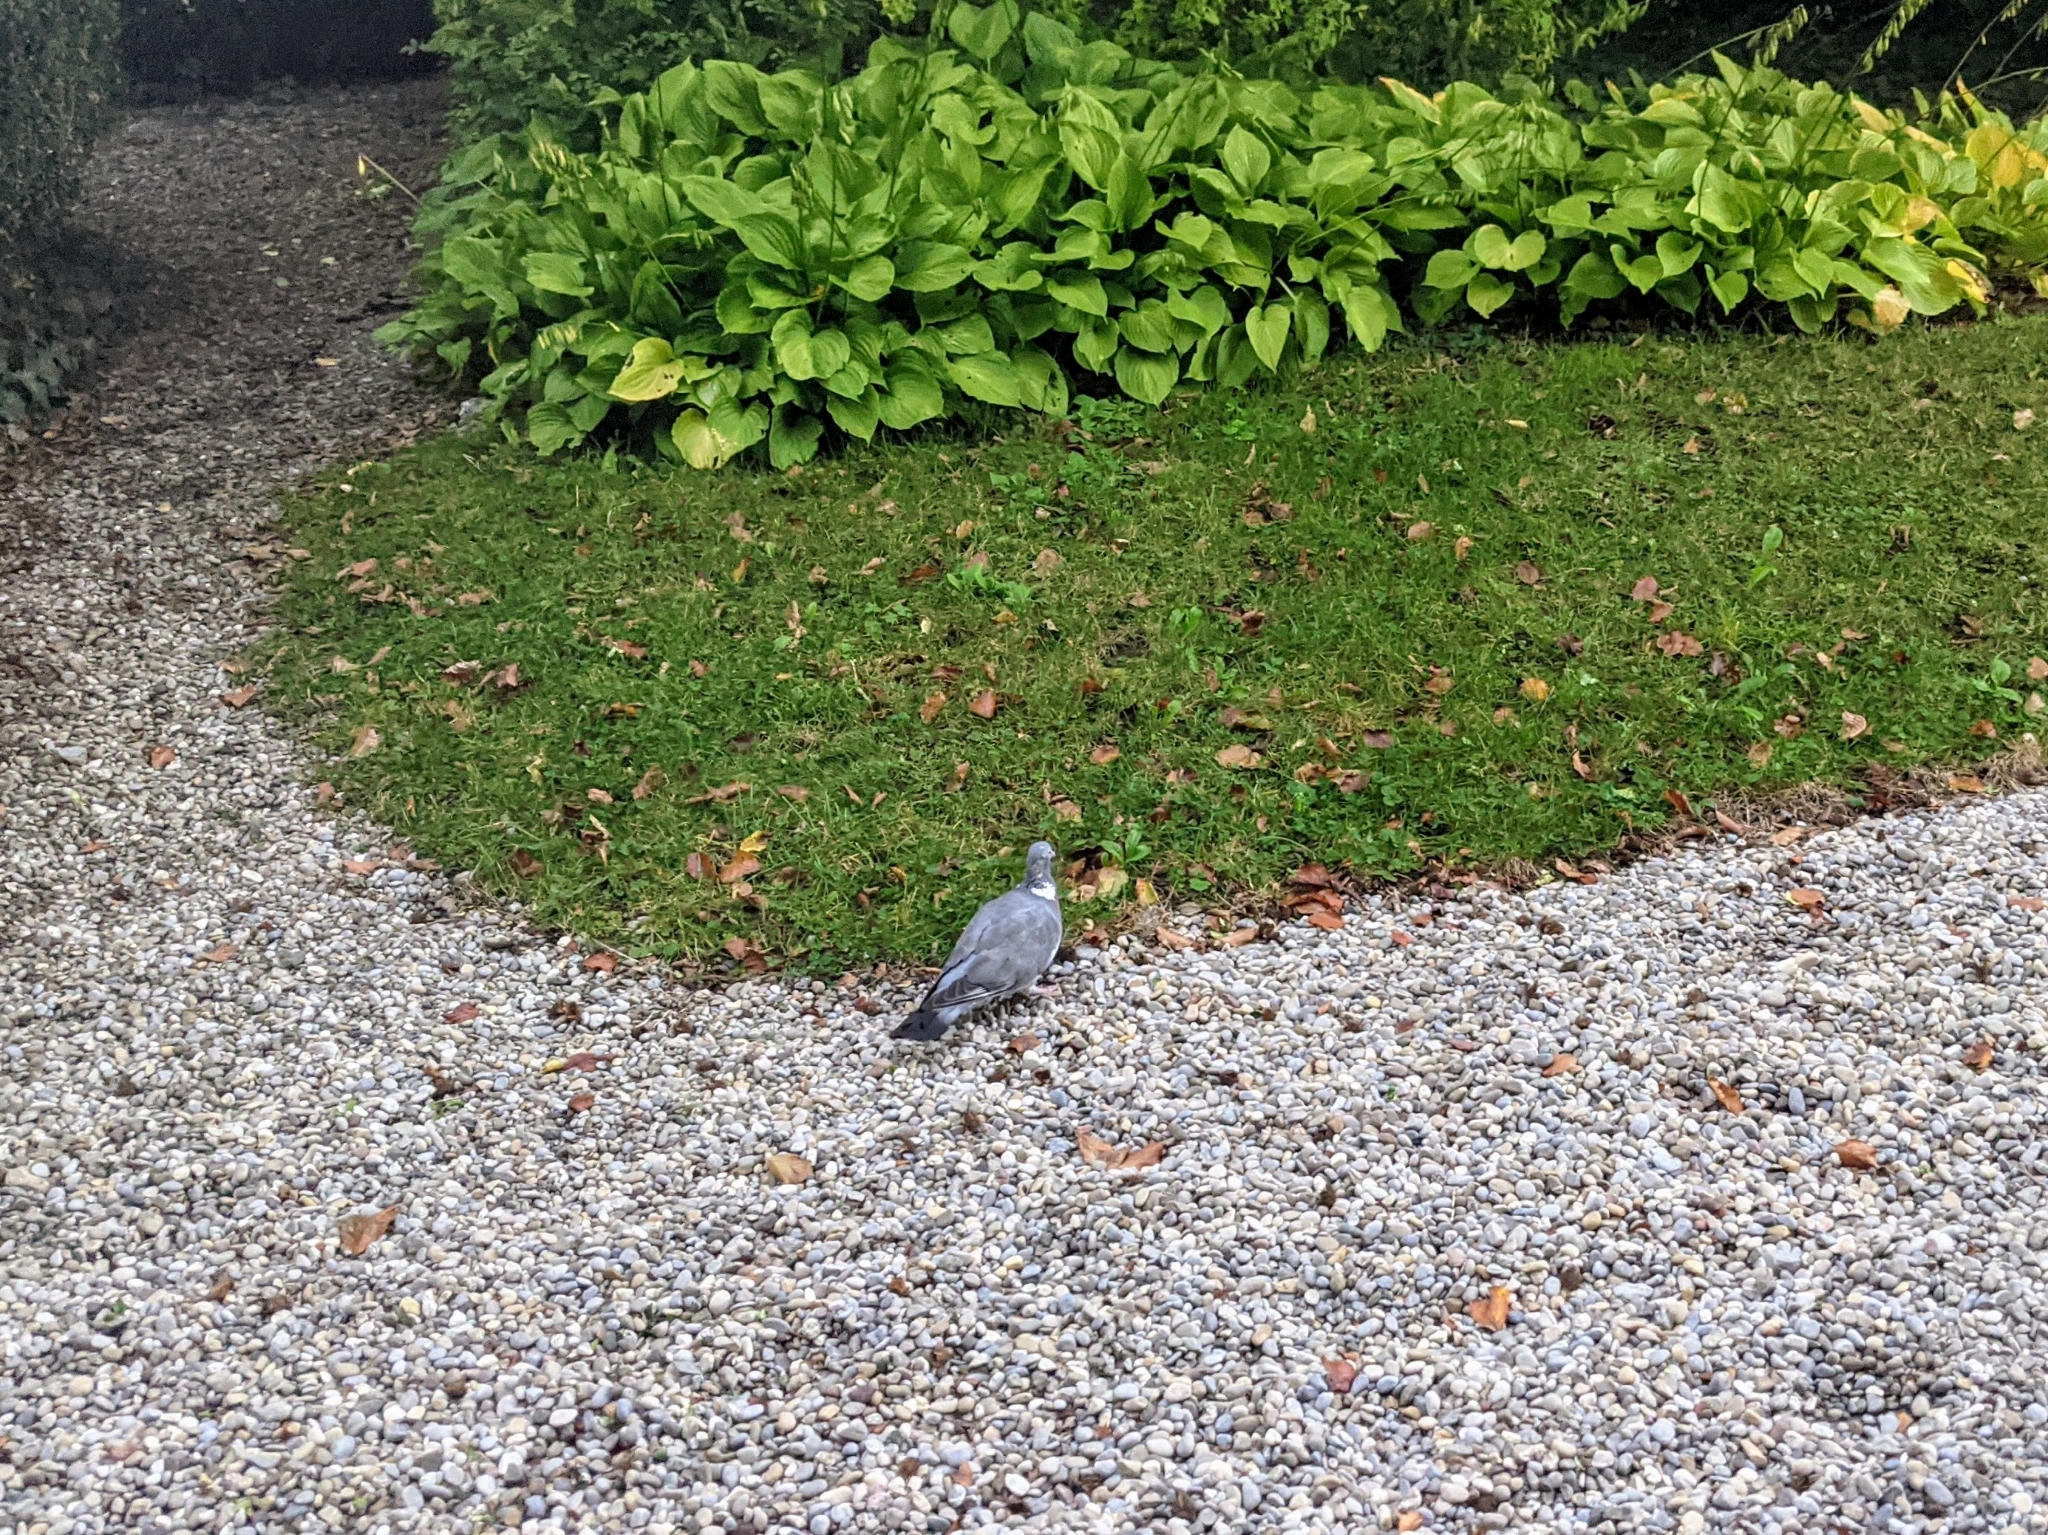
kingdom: Animalia
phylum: Chordata
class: Aves
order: Columbiformes
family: Columbidae
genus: Columba
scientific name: Columba palumbus
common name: Common wood pigeon
